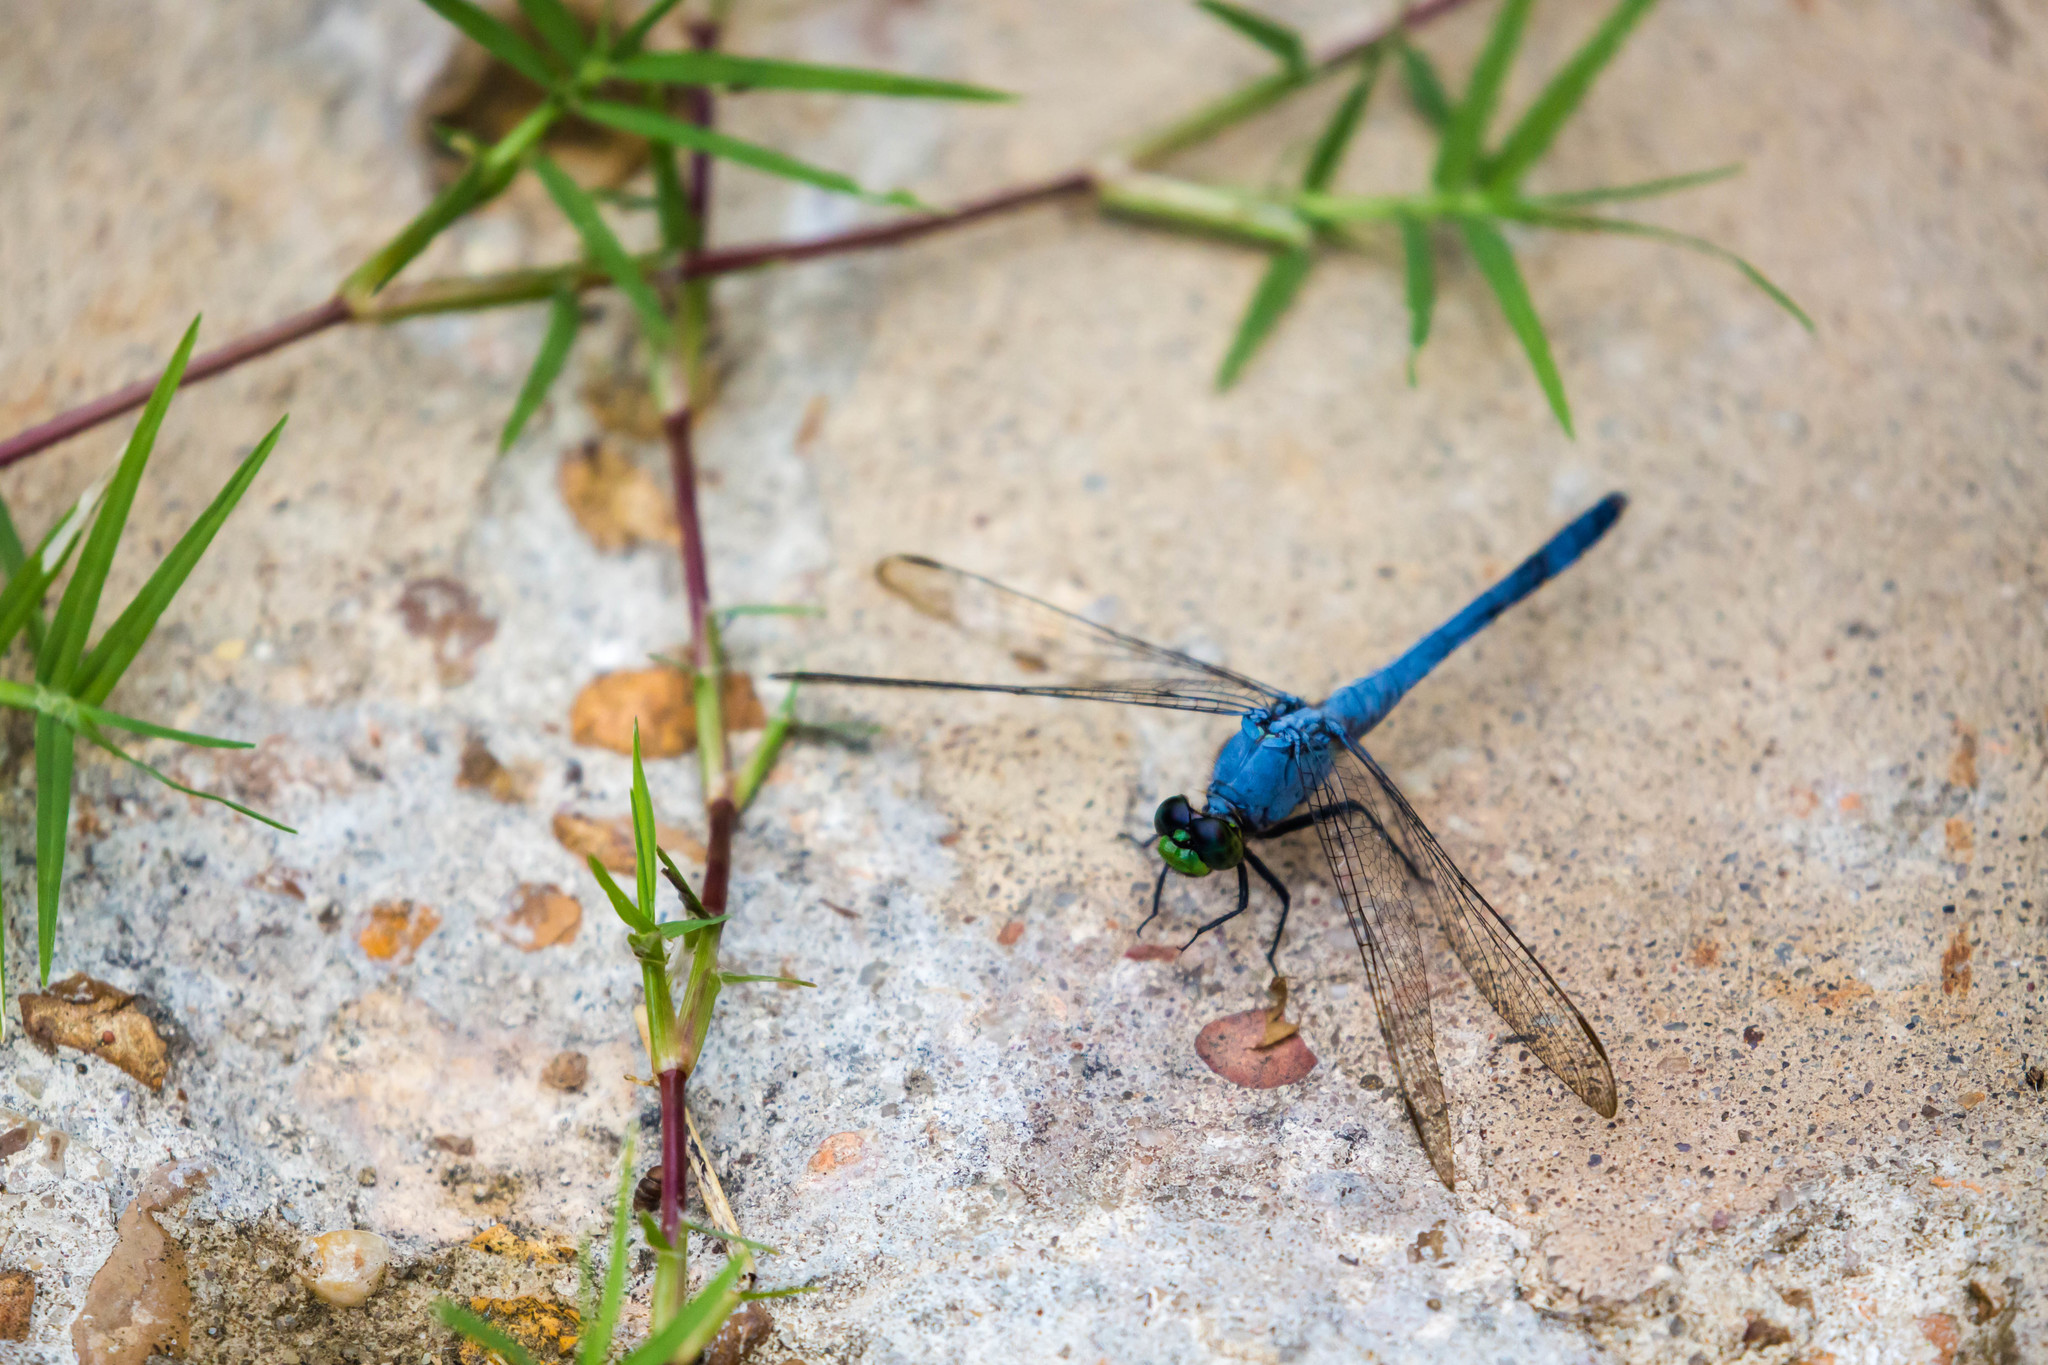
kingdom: Animalia
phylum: Arthropoda
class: Insecta
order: Odonata
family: Libellulidae
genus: Erythemis
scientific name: Erythemis simplicicollis
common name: Eastern pondhawk
